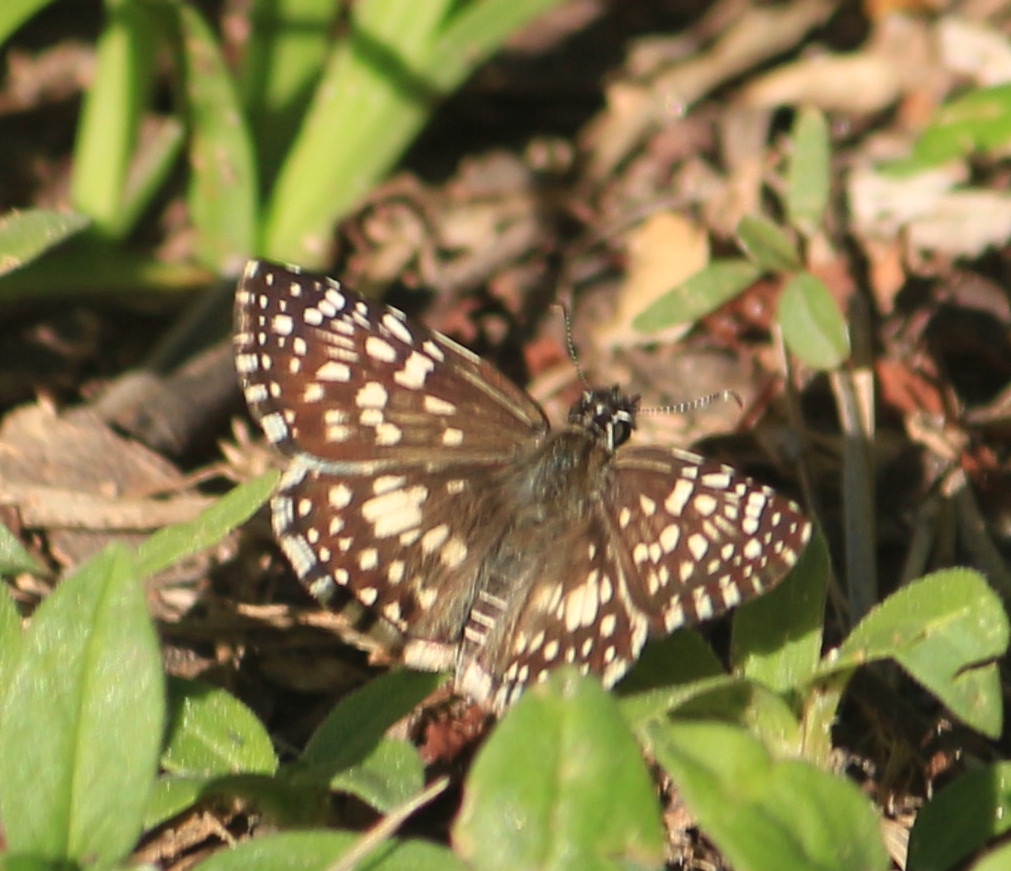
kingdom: Animalia
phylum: Arthropoda
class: Insecta
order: Lepidoptera
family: Hesperiidae
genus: Pyrgus
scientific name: Pyrgus oileus
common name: Tropical checkered-skipper
